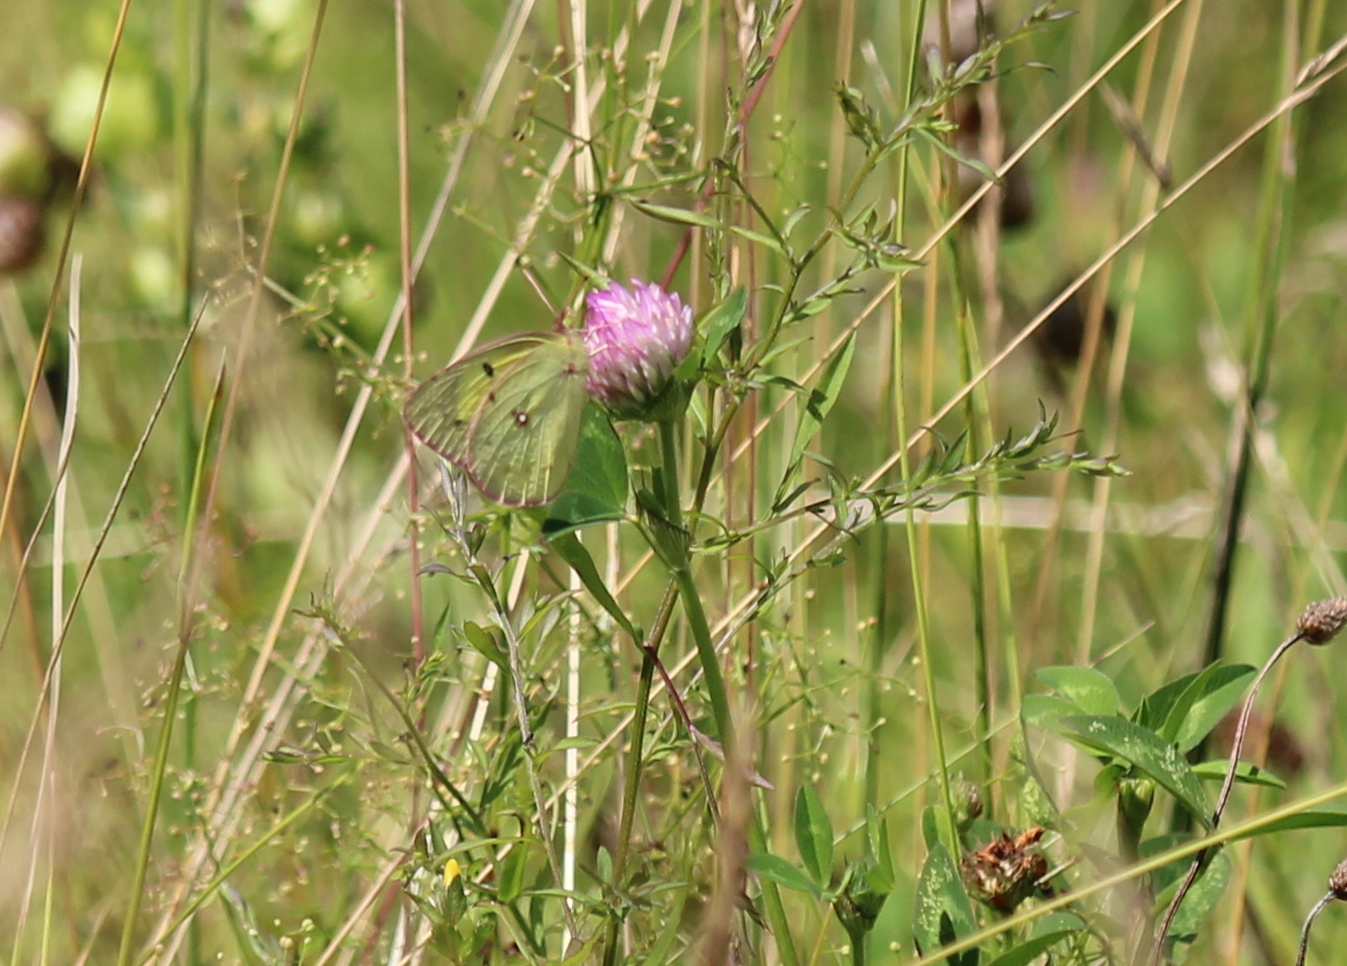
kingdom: Plantae
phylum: Tracheophyta
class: Magnoliopsida
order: Fabales
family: Fabaceae
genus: Trifolium
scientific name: Trifolium pratense
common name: Red clover
